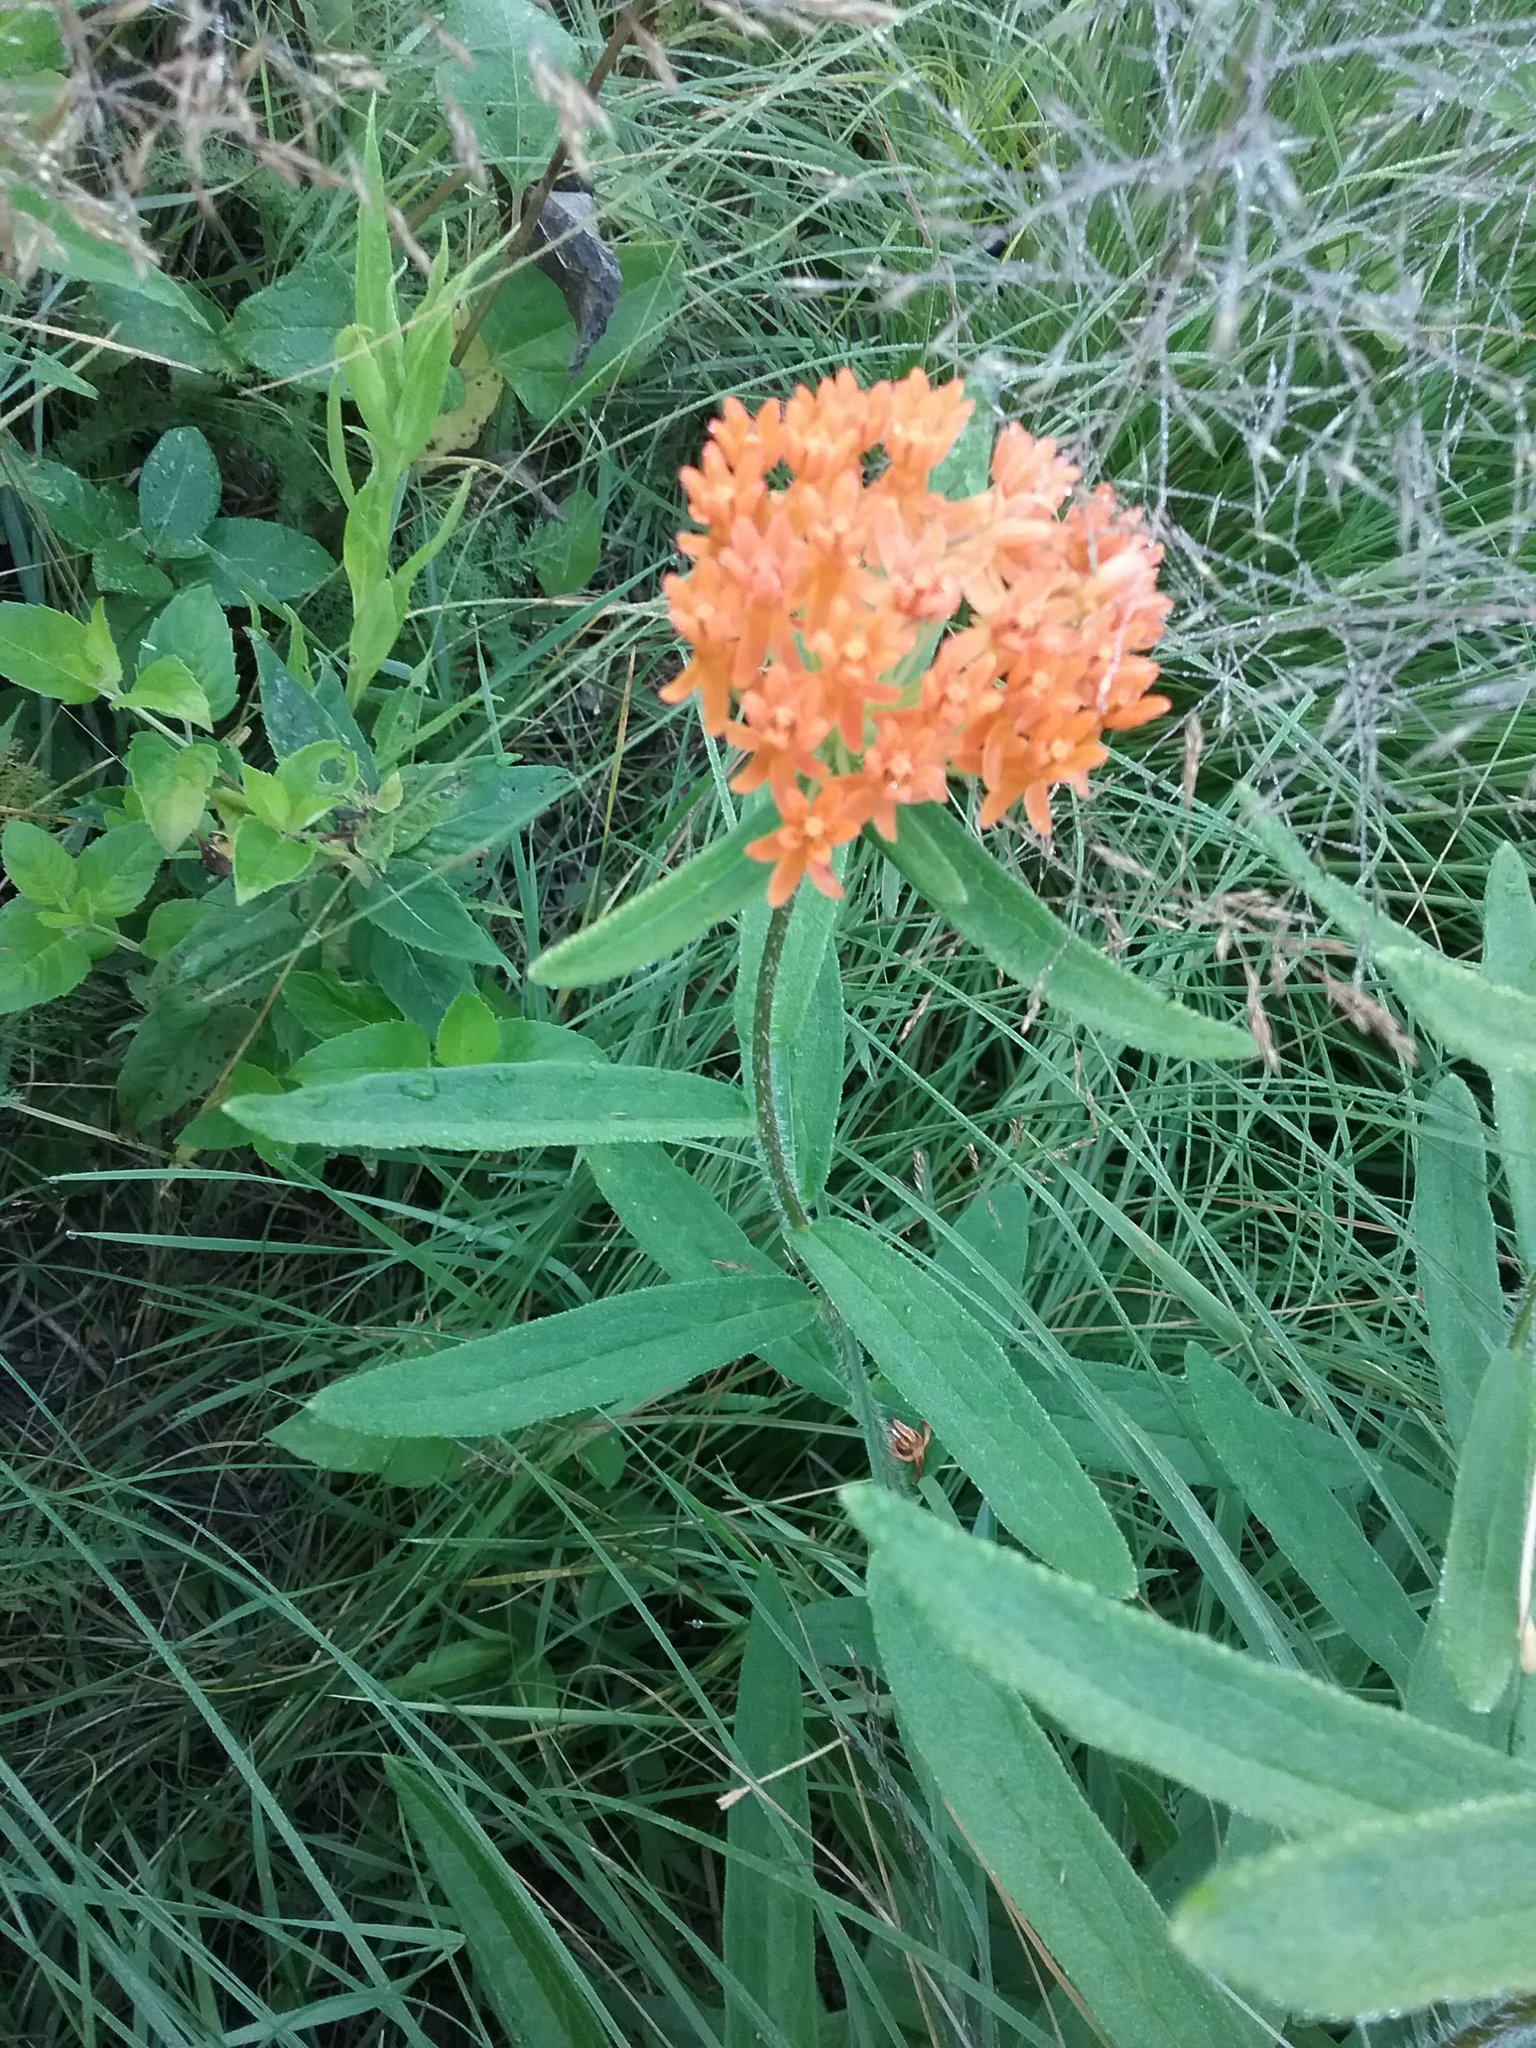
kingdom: Plantae
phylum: Tracheophyta
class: Magnoliopsida
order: Gentianales
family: Apocynaceae
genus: Asclepias
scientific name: Asclepias tuberosa
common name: Butterfly milkweed
